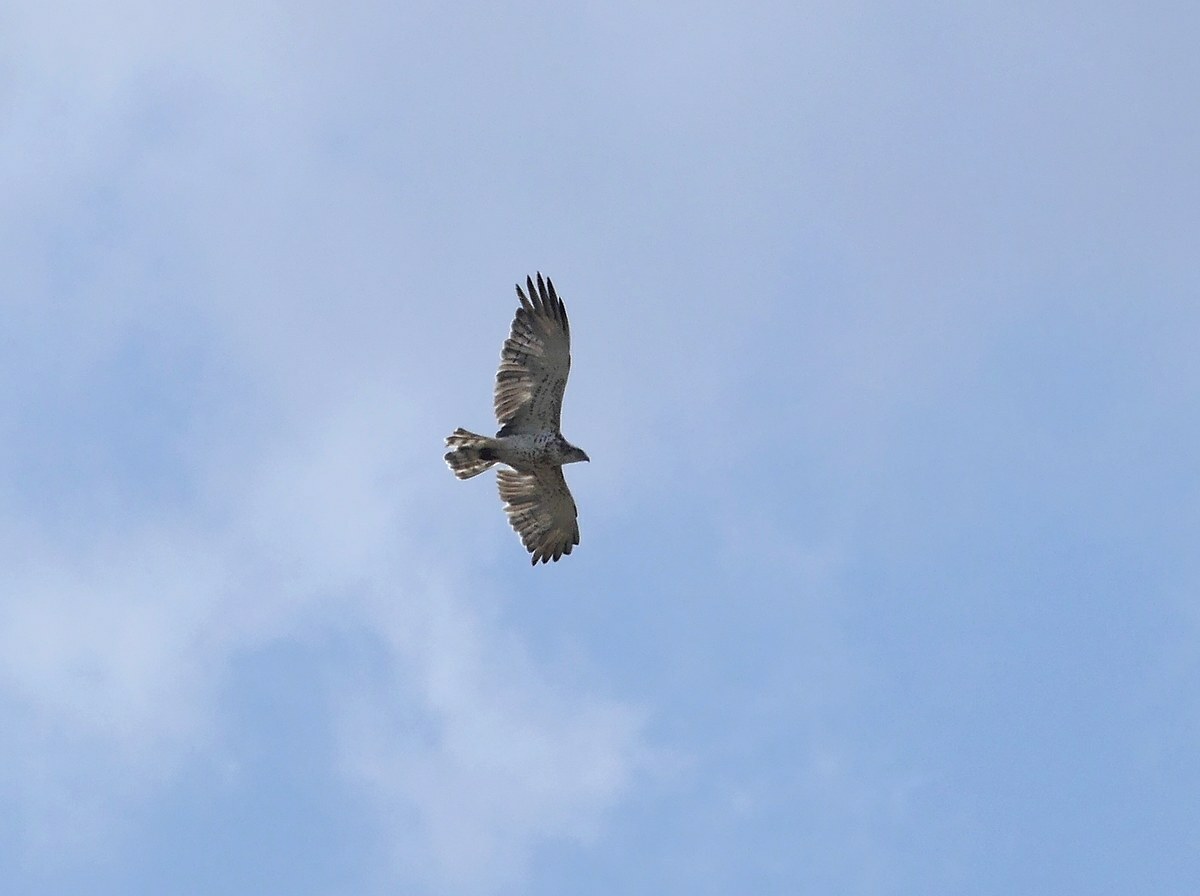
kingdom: Animalia
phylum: Chordata
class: Aves
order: Accipitriformes
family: Accipitridae
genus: Circaetus
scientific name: Circaetus gallicus
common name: Short-toed snake eagle
